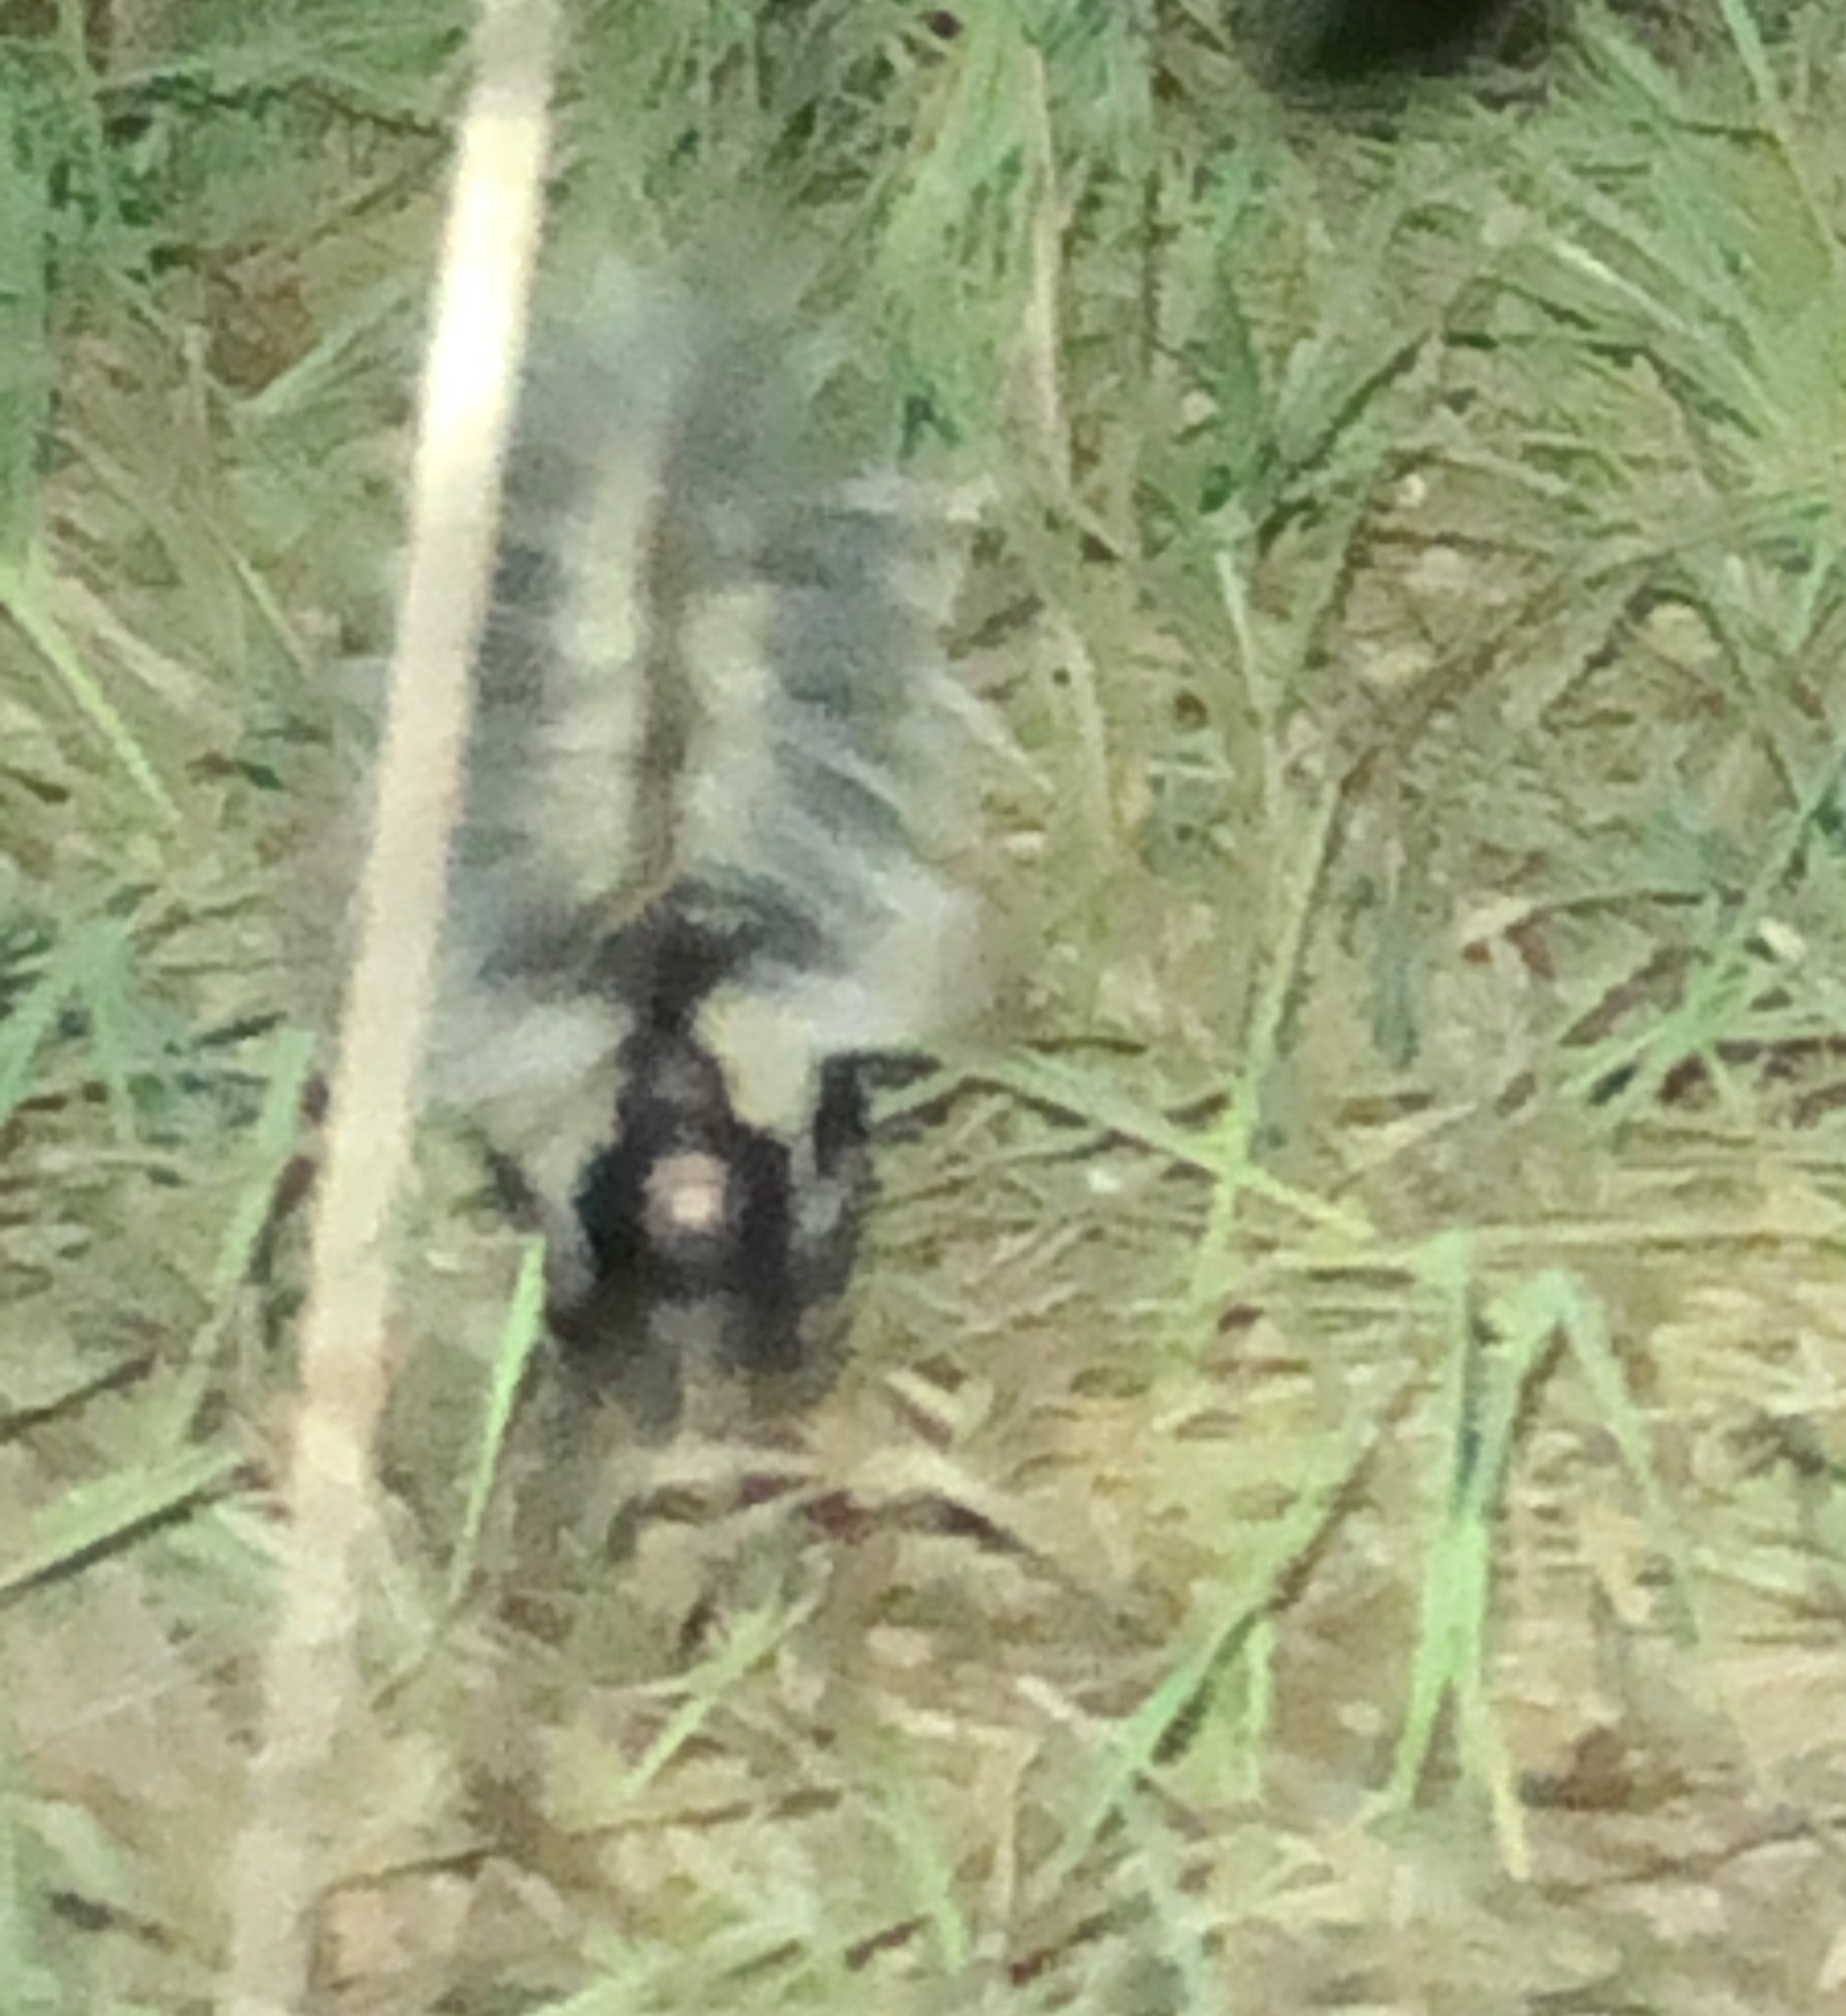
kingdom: Animalia
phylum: Chordata
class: Mammalia
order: Carnivora
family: Mephitidae
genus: Mephitis
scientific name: Mephitis mephitis
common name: Striped skunk
